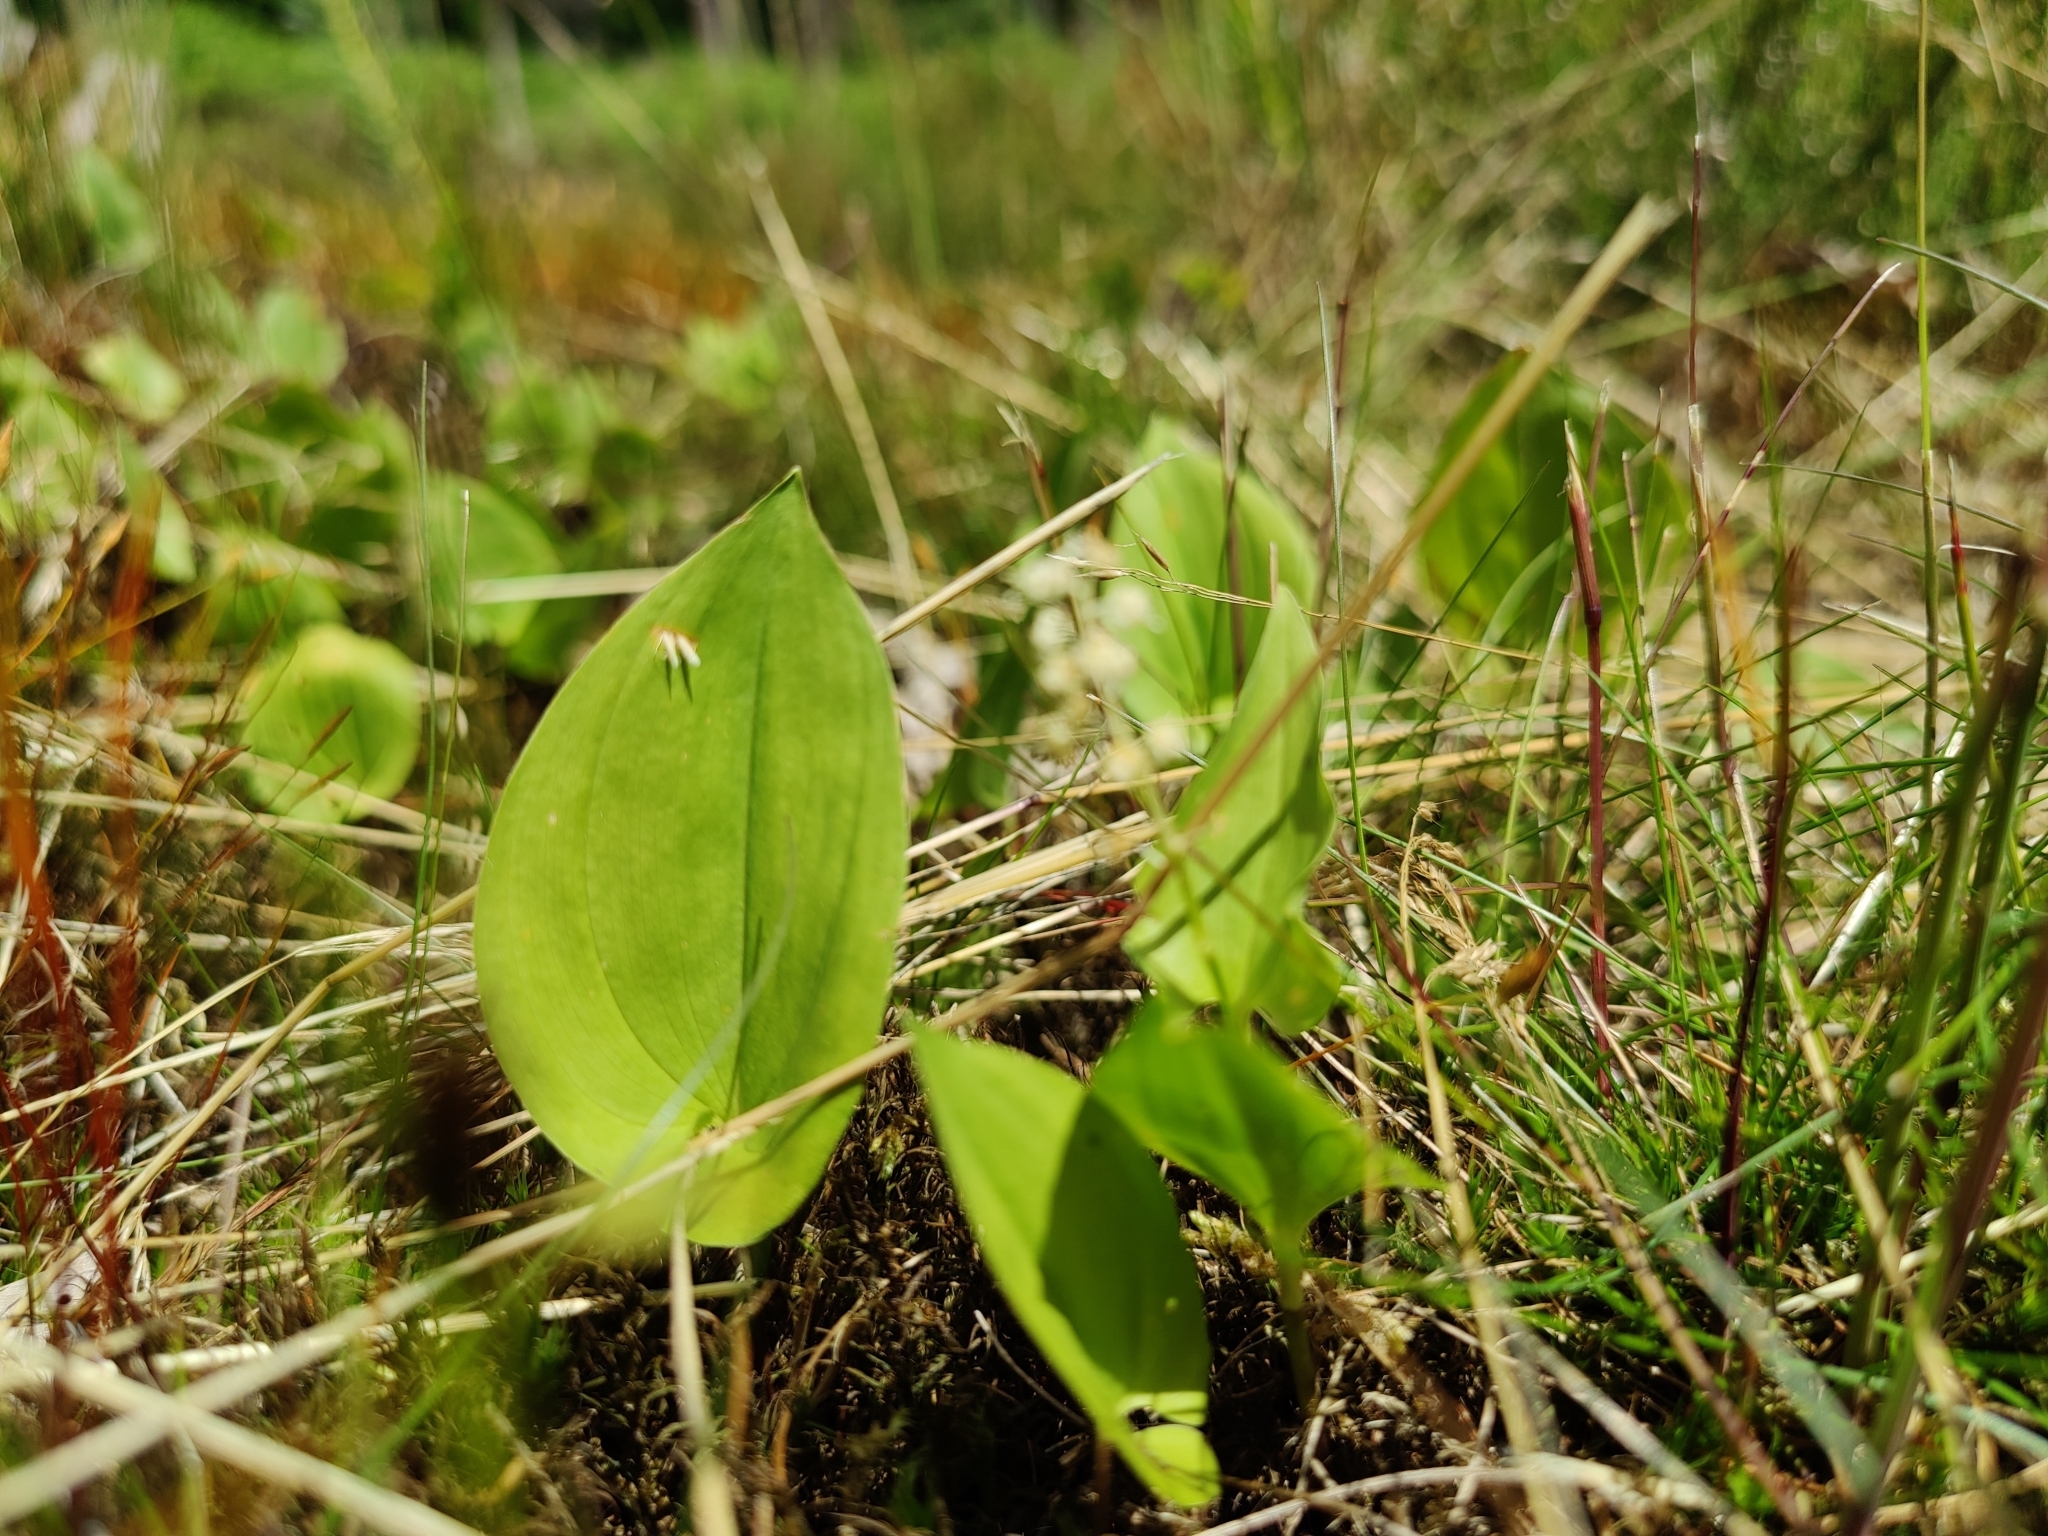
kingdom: Plantae
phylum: Tracheophyta
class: Liliopsida
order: Asparagales
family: Asparagaceae
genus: Maianthemum
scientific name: Maianthemum bifolium
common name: May lily
